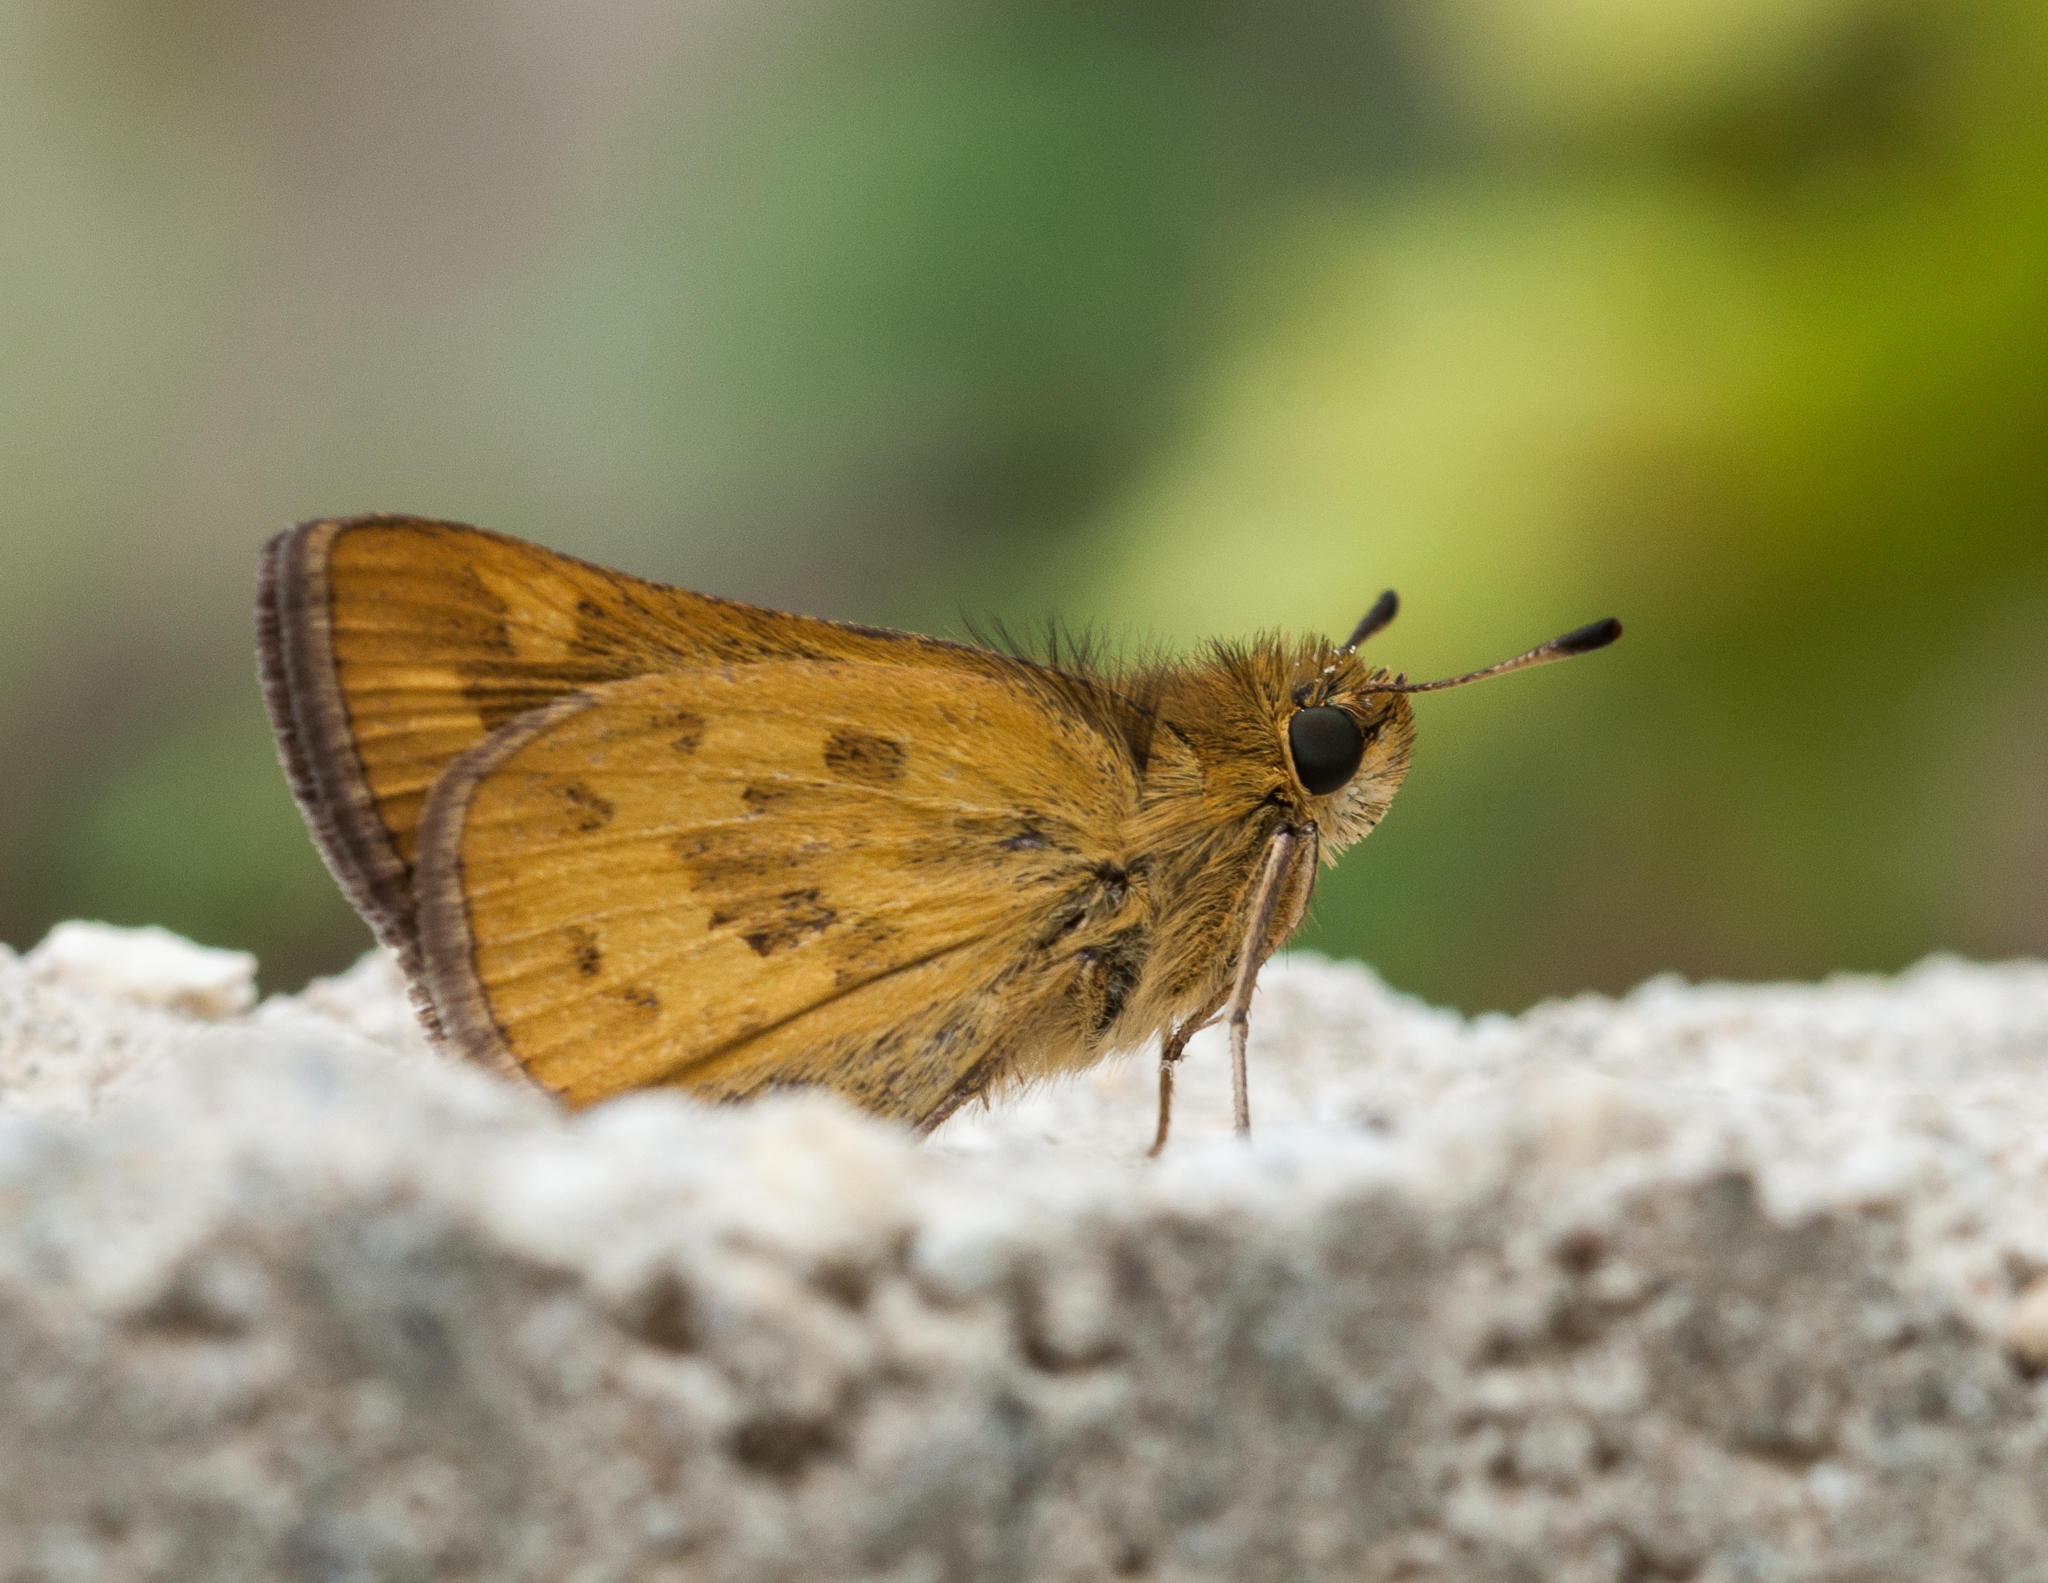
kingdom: Animalia
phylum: Arthropoda
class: Insecta
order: Hymenoptera
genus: Afrogenes
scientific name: Afrogenes
